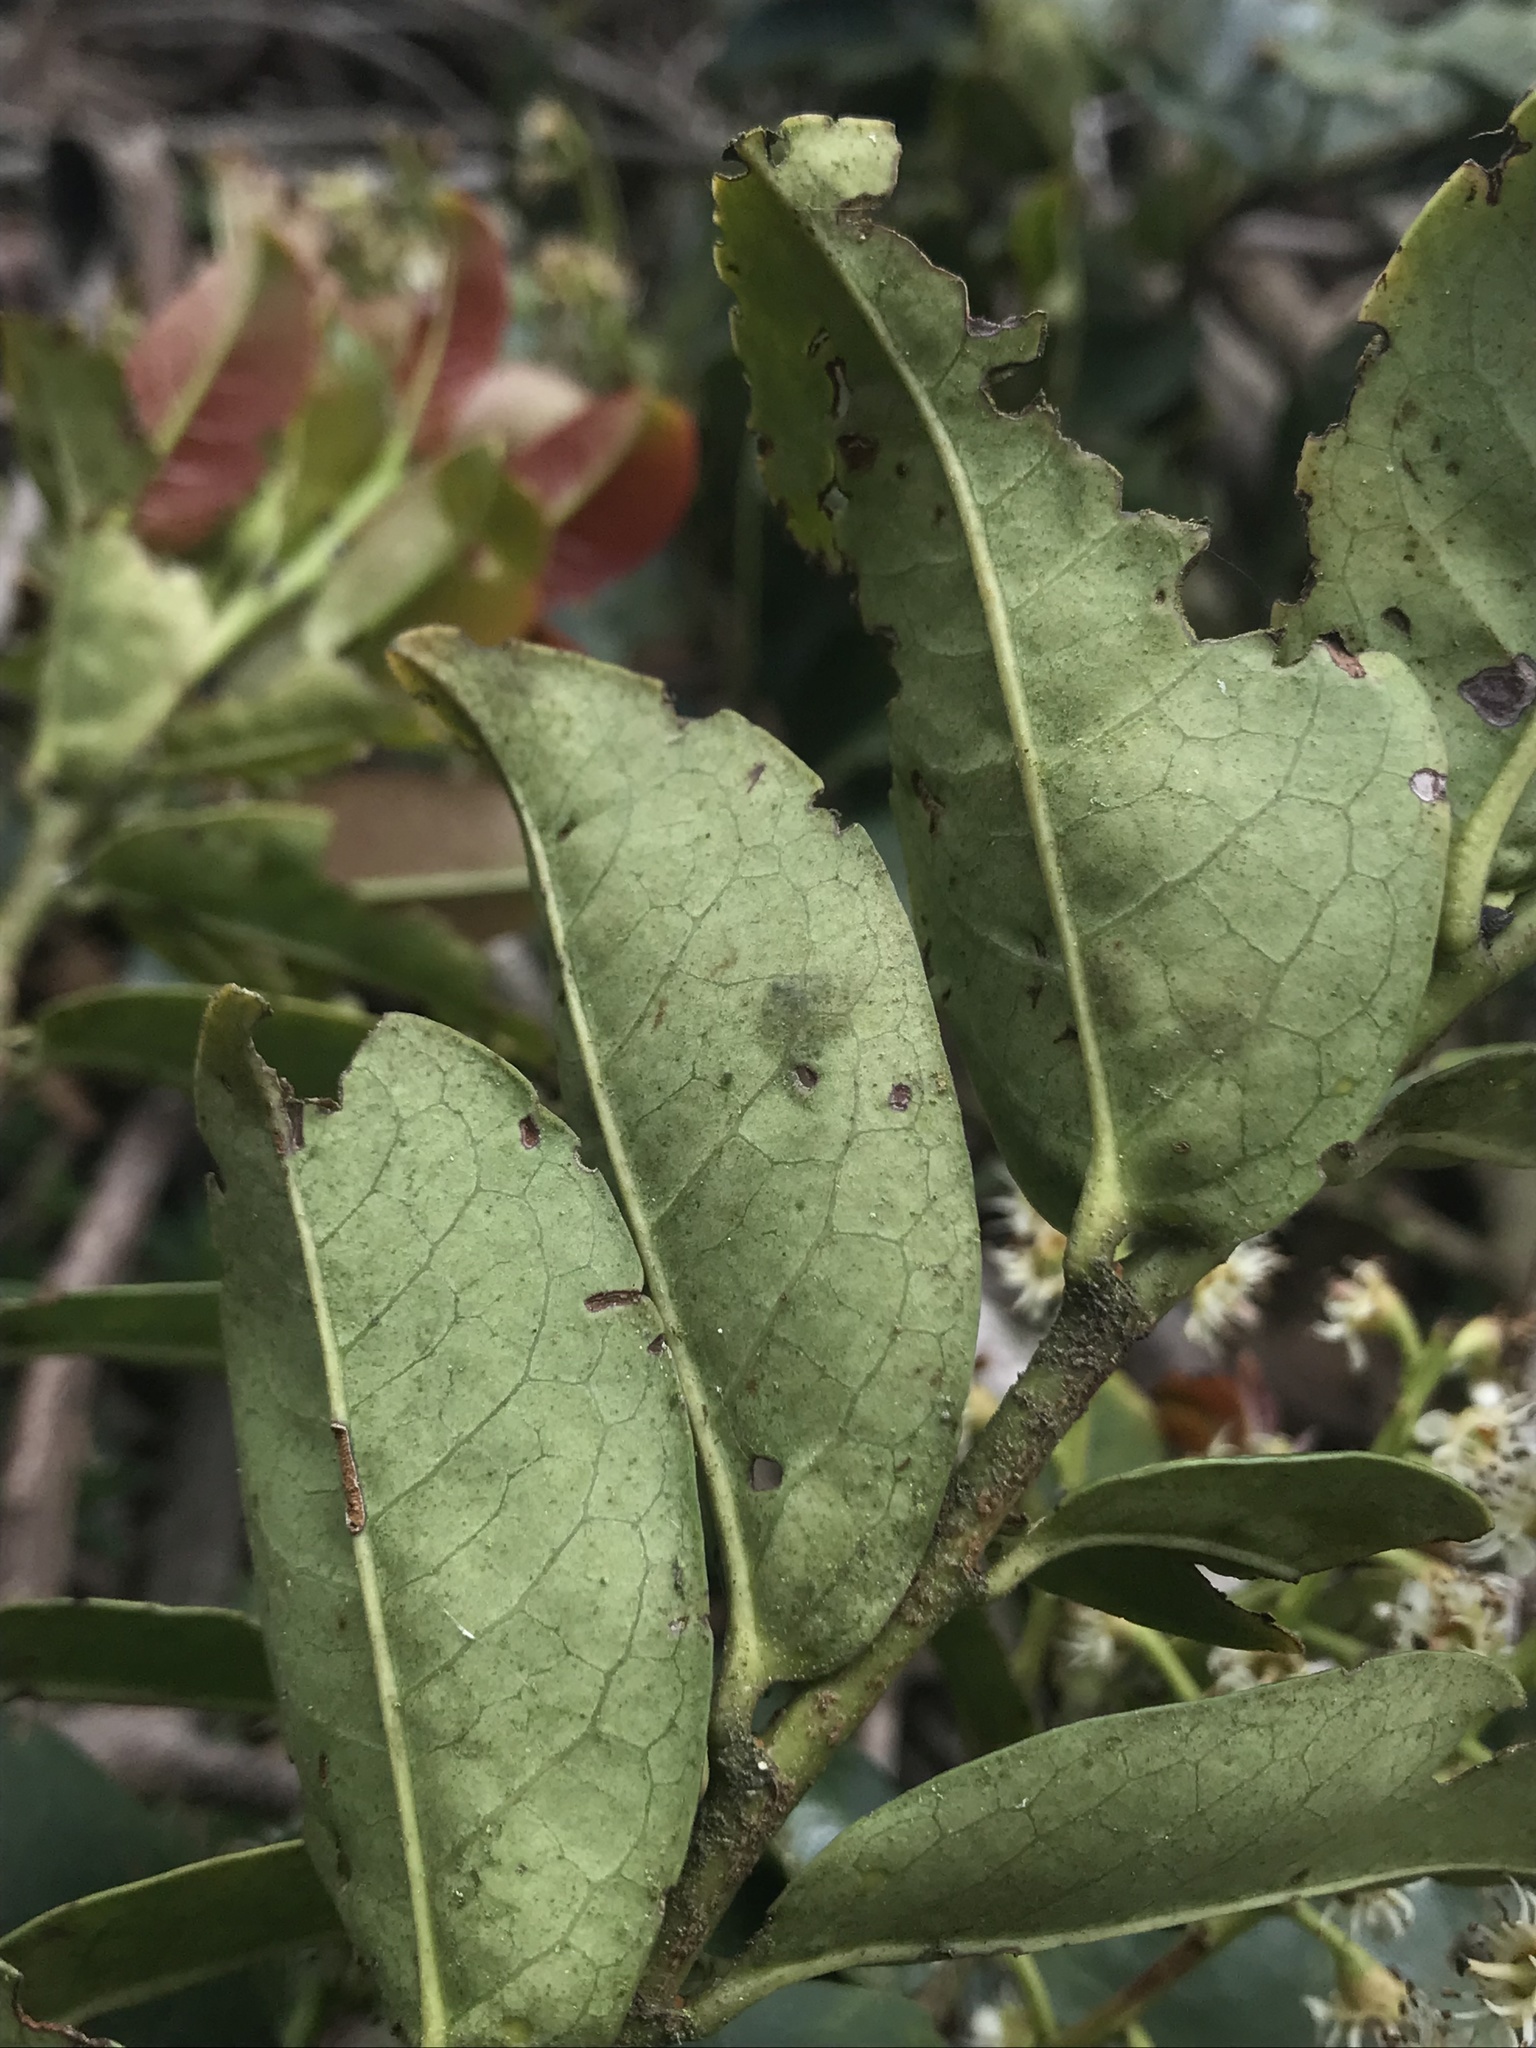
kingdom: Plantae
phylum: Tracheophyta
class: Magnoliopsida
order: Rosales
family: Rosaceae
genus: Prunus
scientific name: Prunus buxifolia
